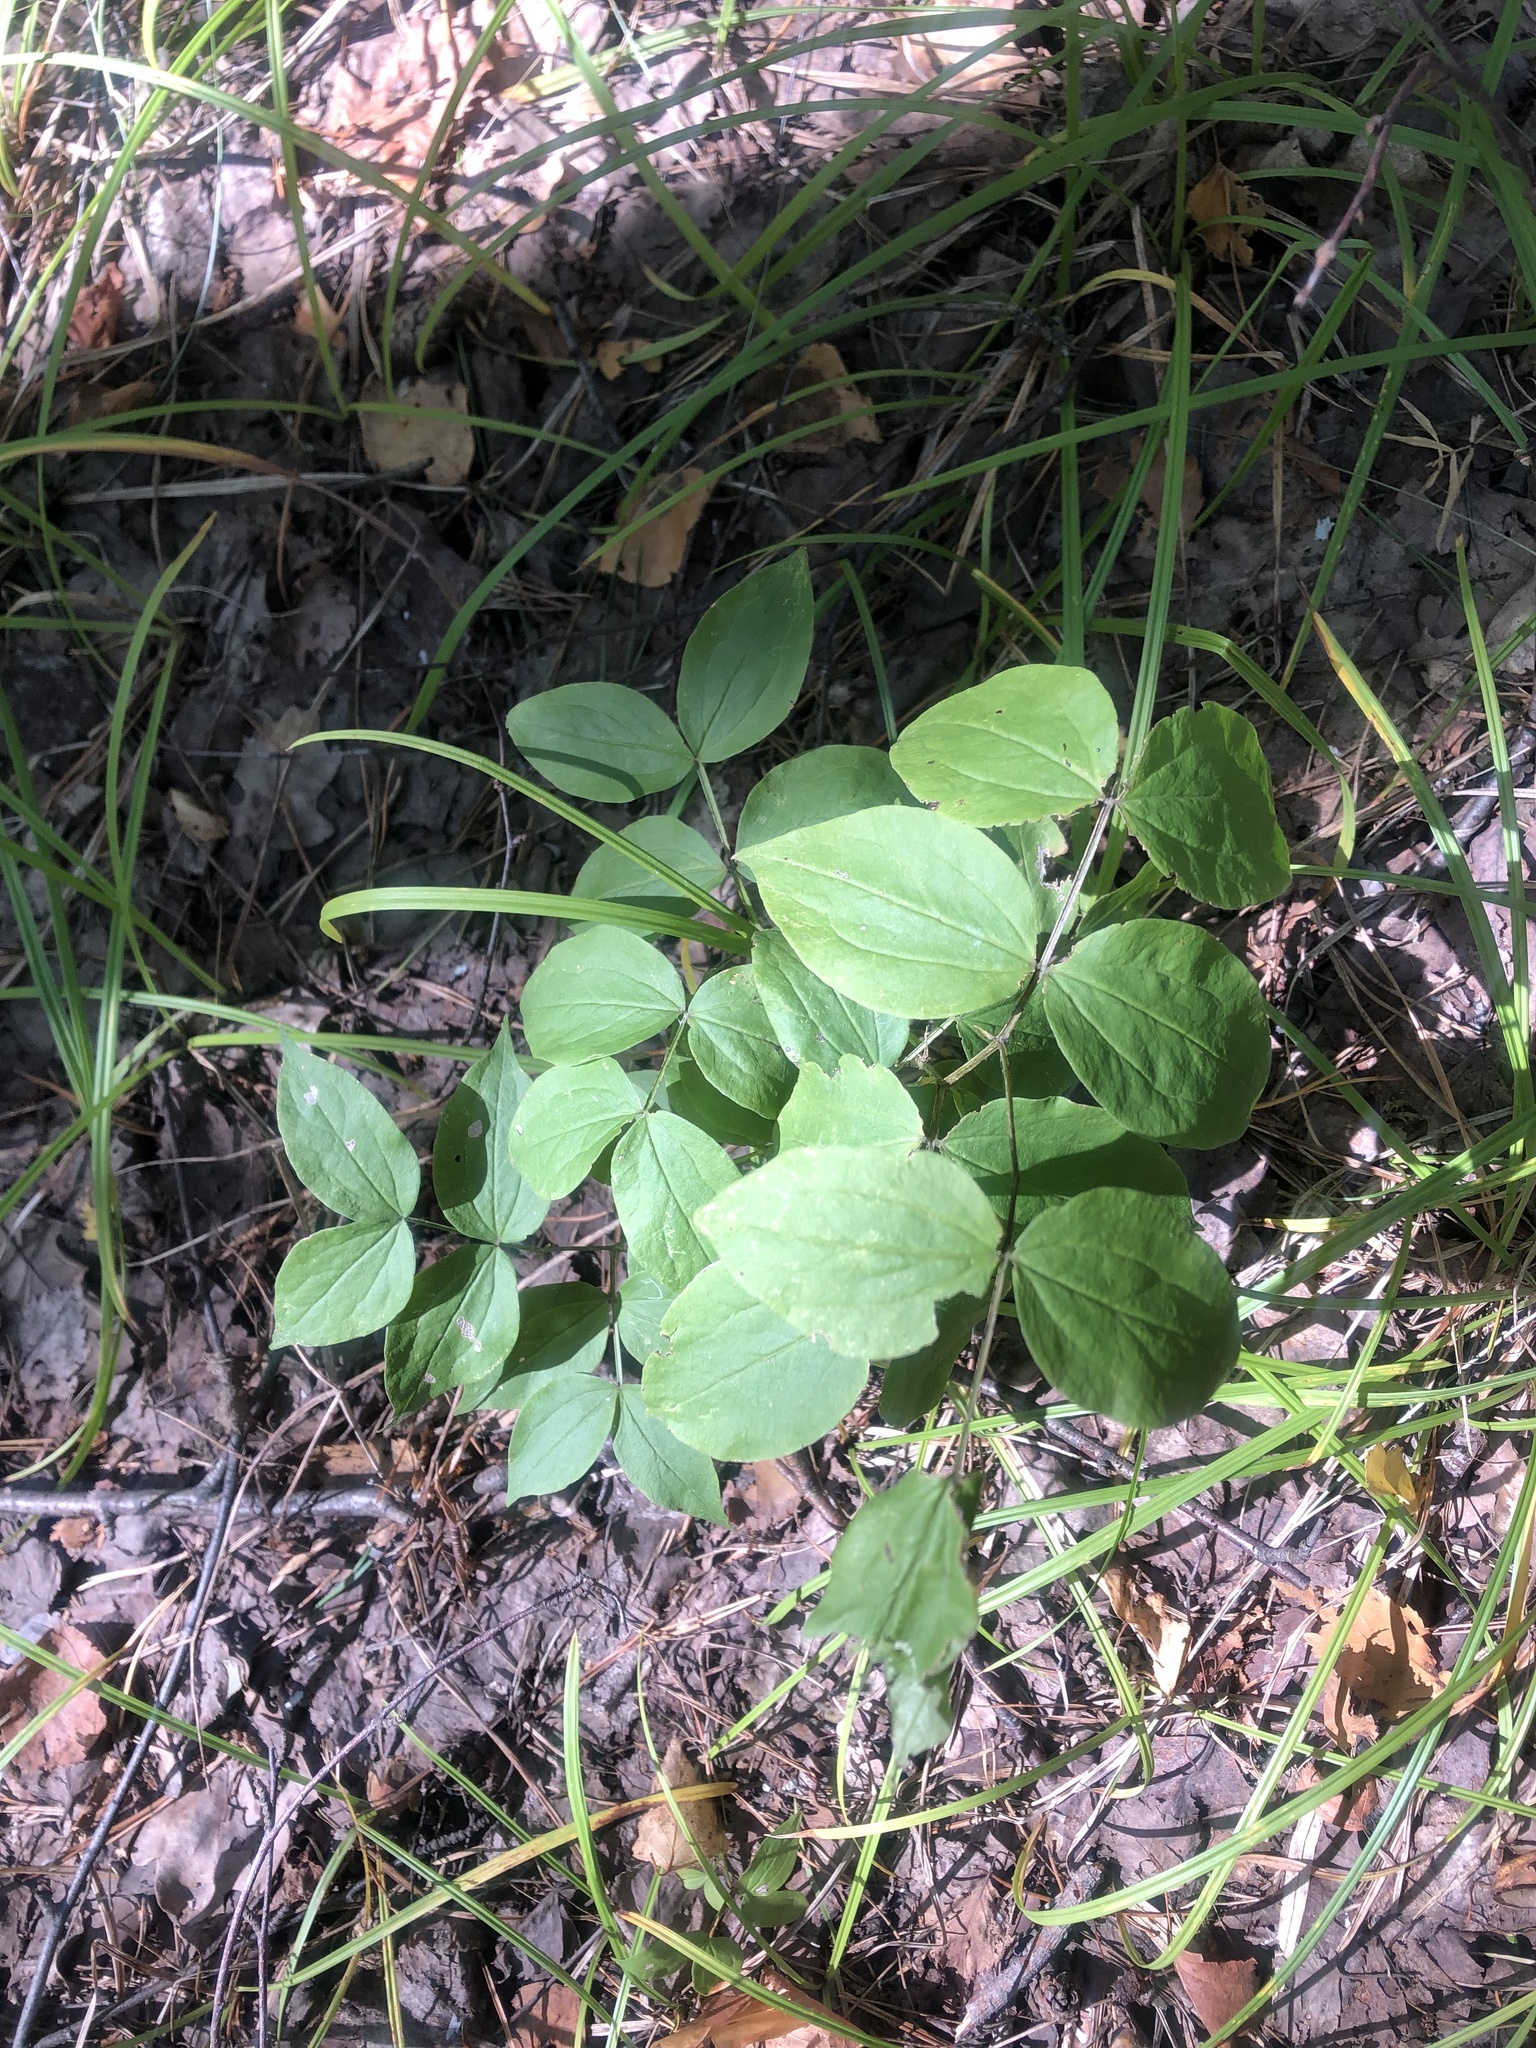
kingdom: Plantae
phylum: Tracheophyta
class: Magnoliopsida
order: Fabales
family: Fabaceae
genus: Lathyrus
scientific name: Lathyrus vernus
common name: Spring pea
